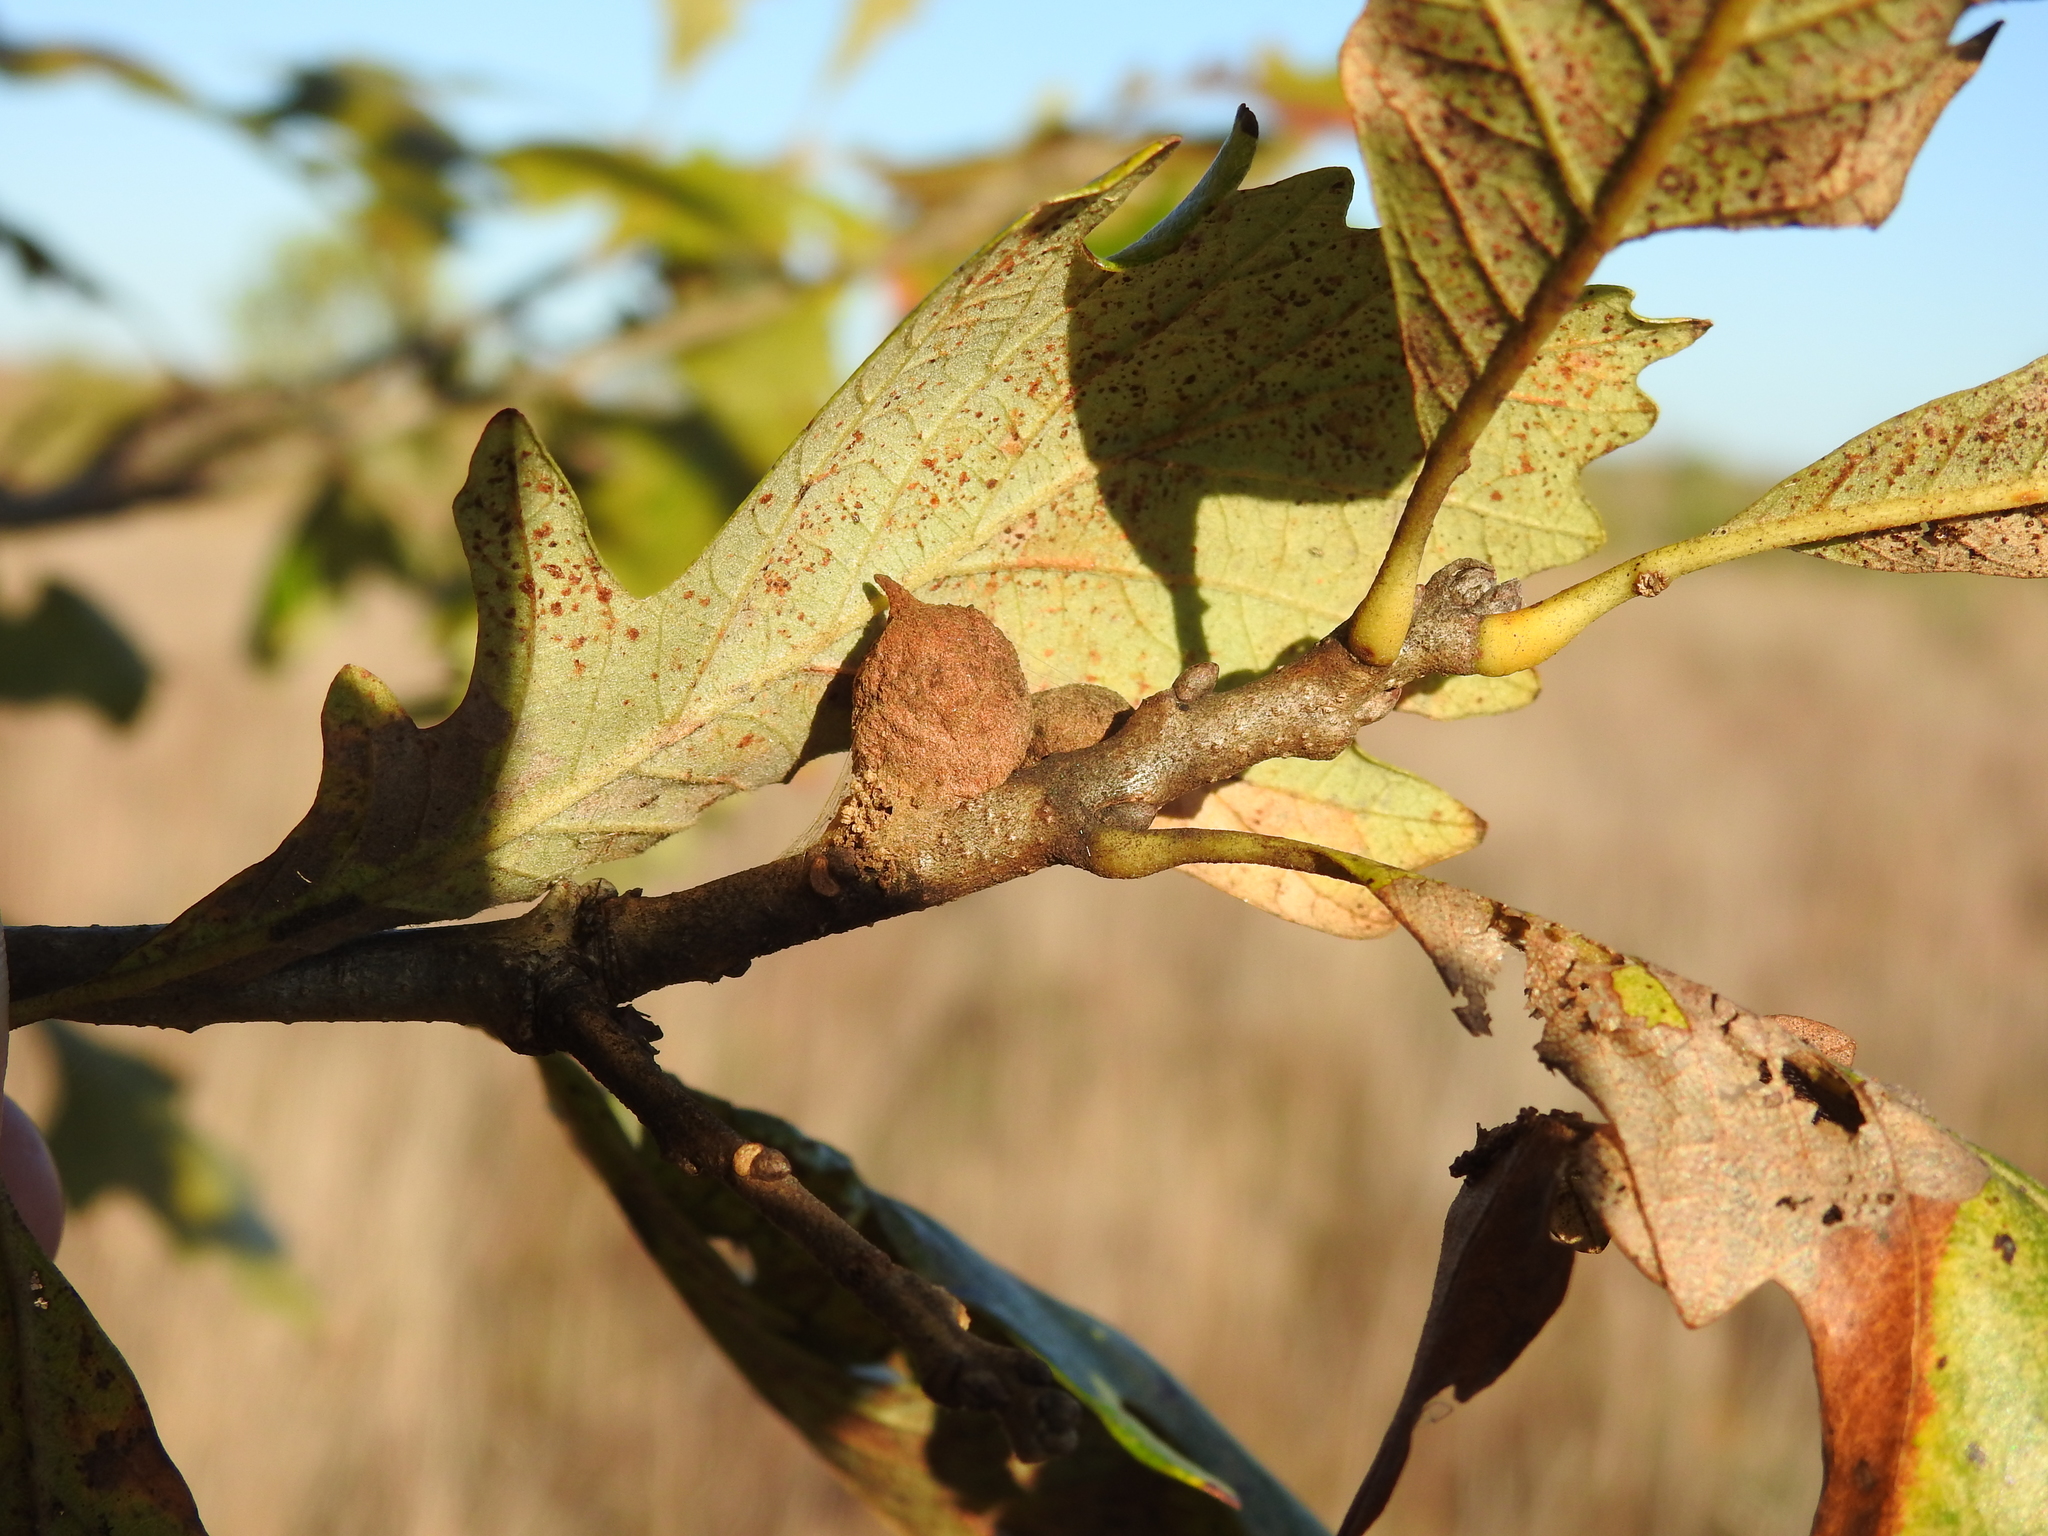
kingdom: Animalia
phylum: Arthropoda
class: Insecta
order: Hymenoptera
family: Cynipidae
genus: Disholcaspis
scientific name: Disholcaspis
